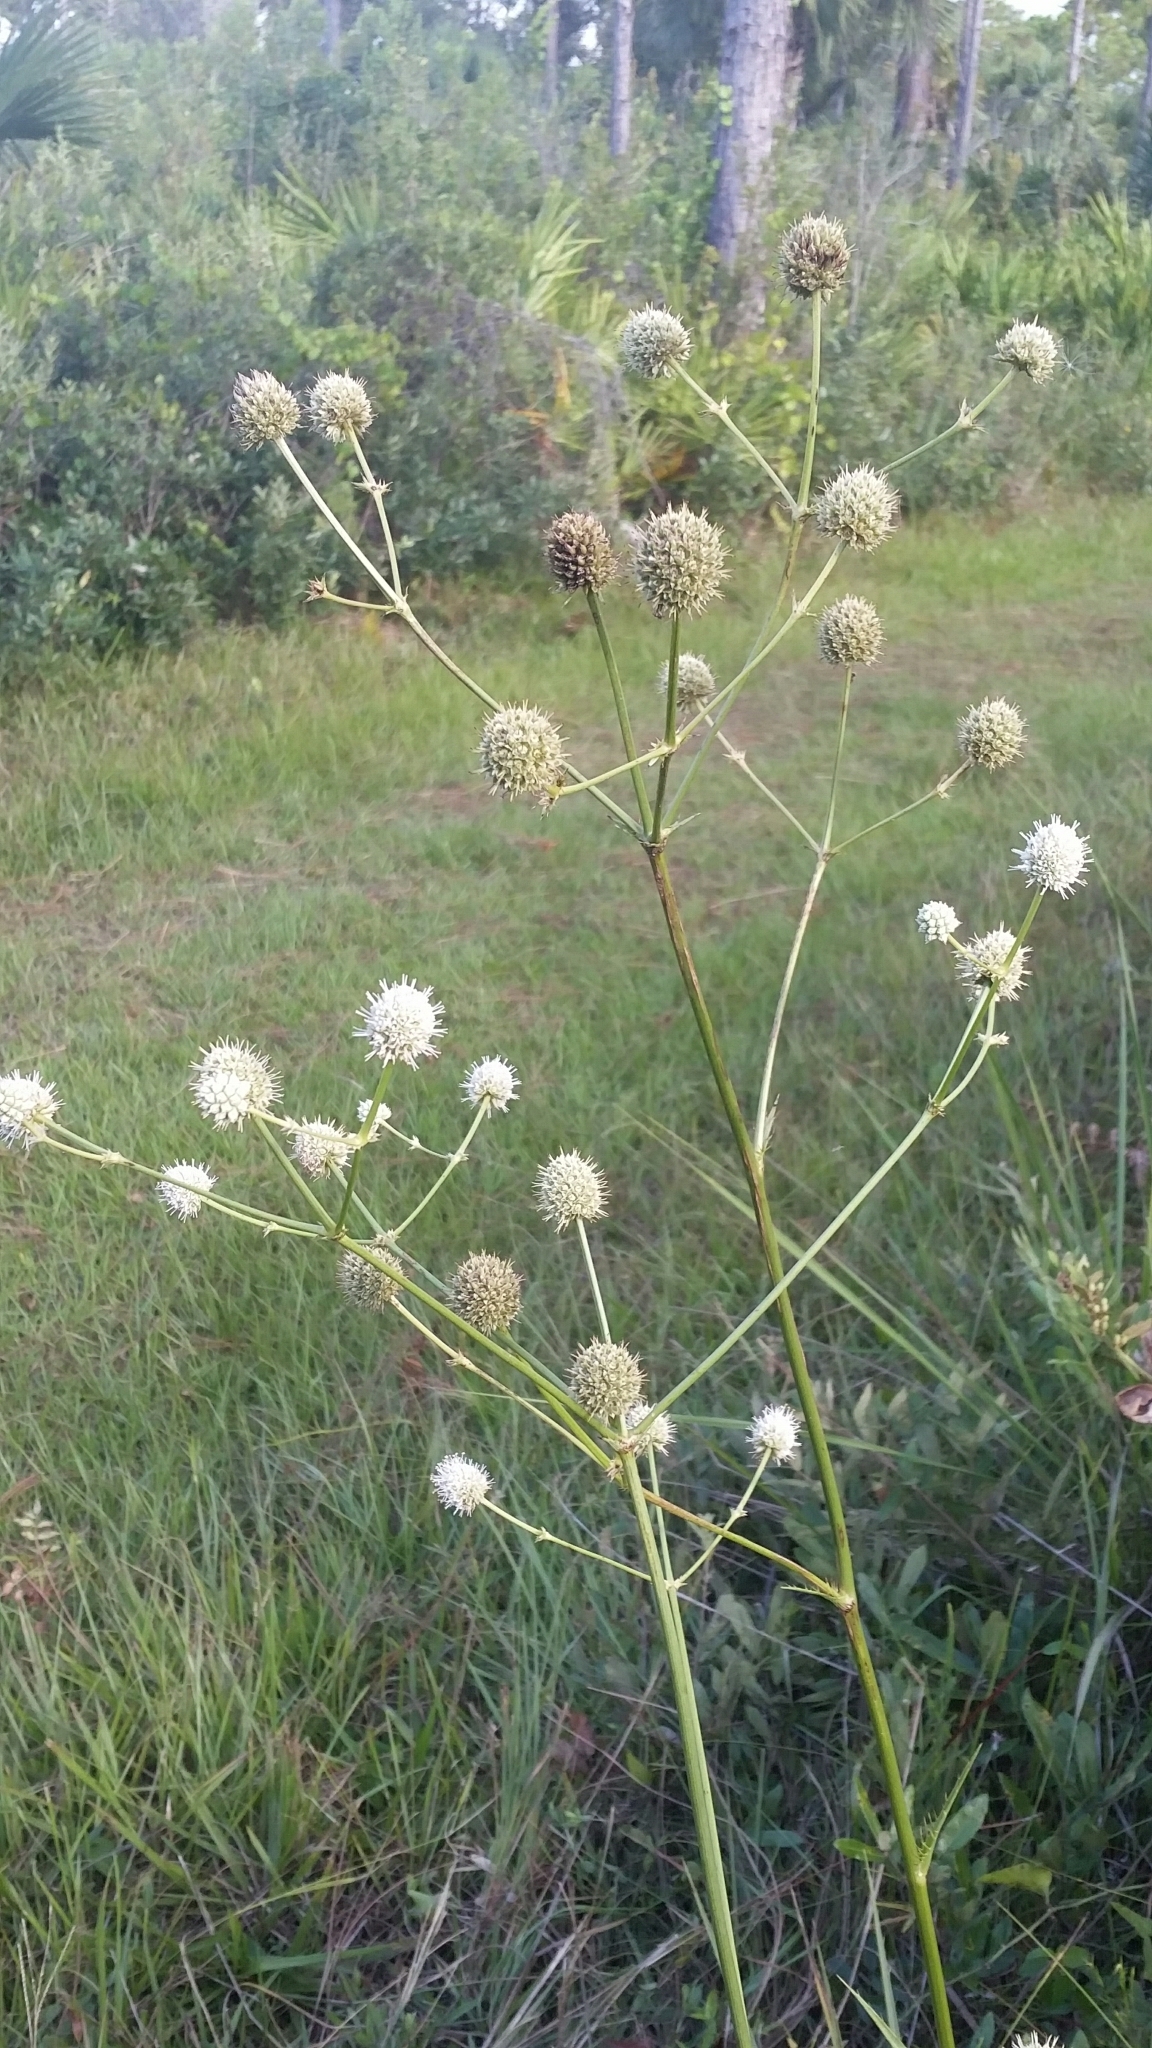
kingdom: Plantae
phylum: Tracheophyta
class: Magnoliopsida
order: Apiales
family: Apiaceae
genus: Eryngium
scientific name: Eryngium yuccifolium
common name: Button eryngo
